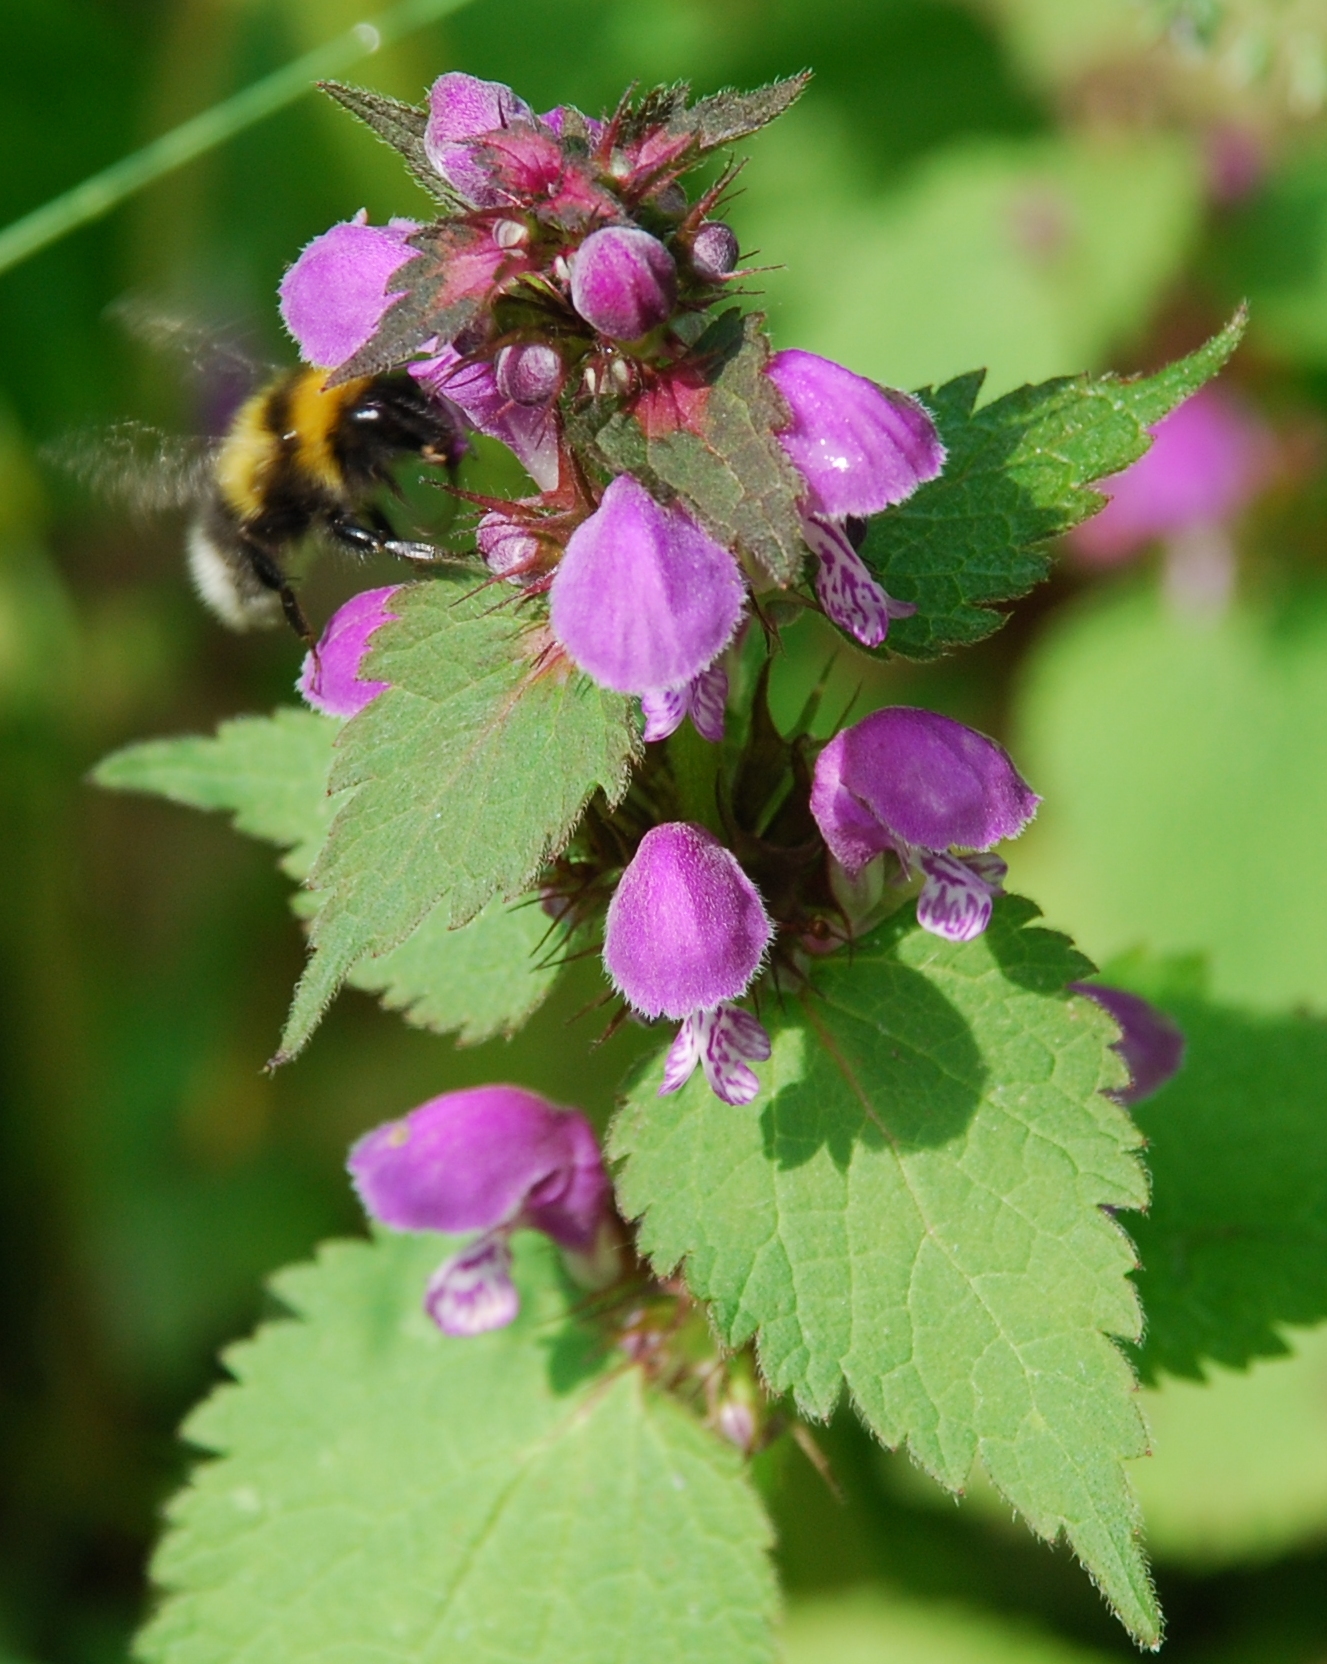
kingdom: Plantae
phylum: Tracheophyta
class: Magnoliopsida
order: Lamiales
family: Lamiaceae
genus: Lamium
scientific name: Lamium maculatum
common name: Spotted dead-nettle
